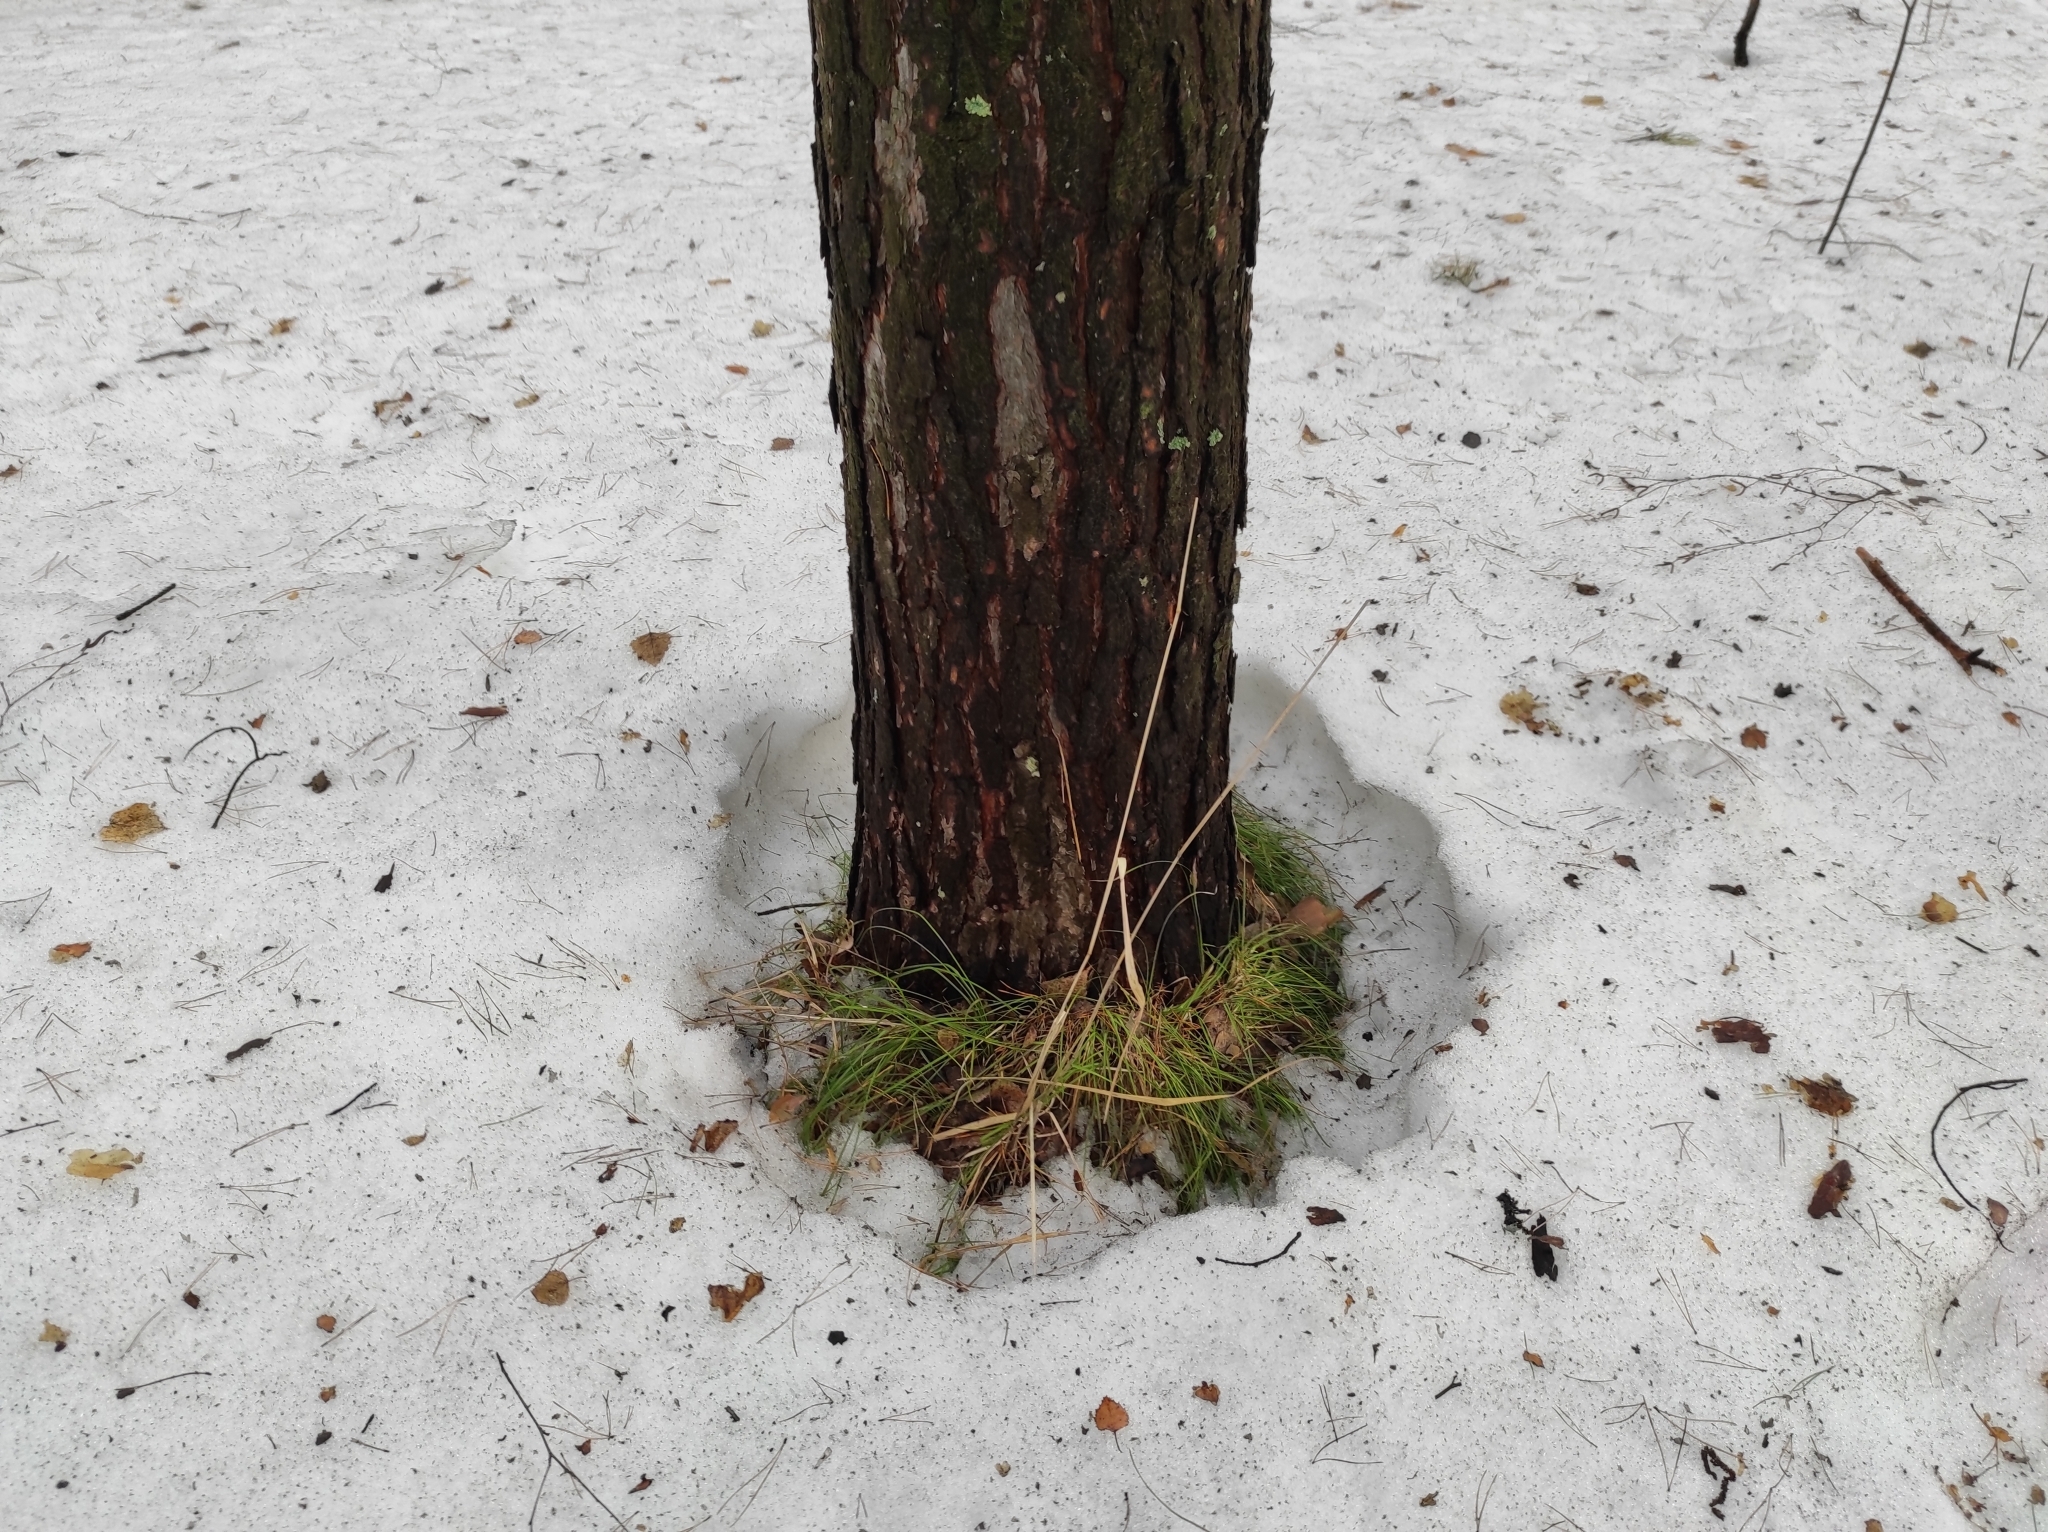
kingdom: Plantae
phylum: Tracheophyta
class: Pinopsida
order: Pinales
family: Pinaceae
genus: Pinus
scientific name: Pinus sylvestris
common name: Scots pine
